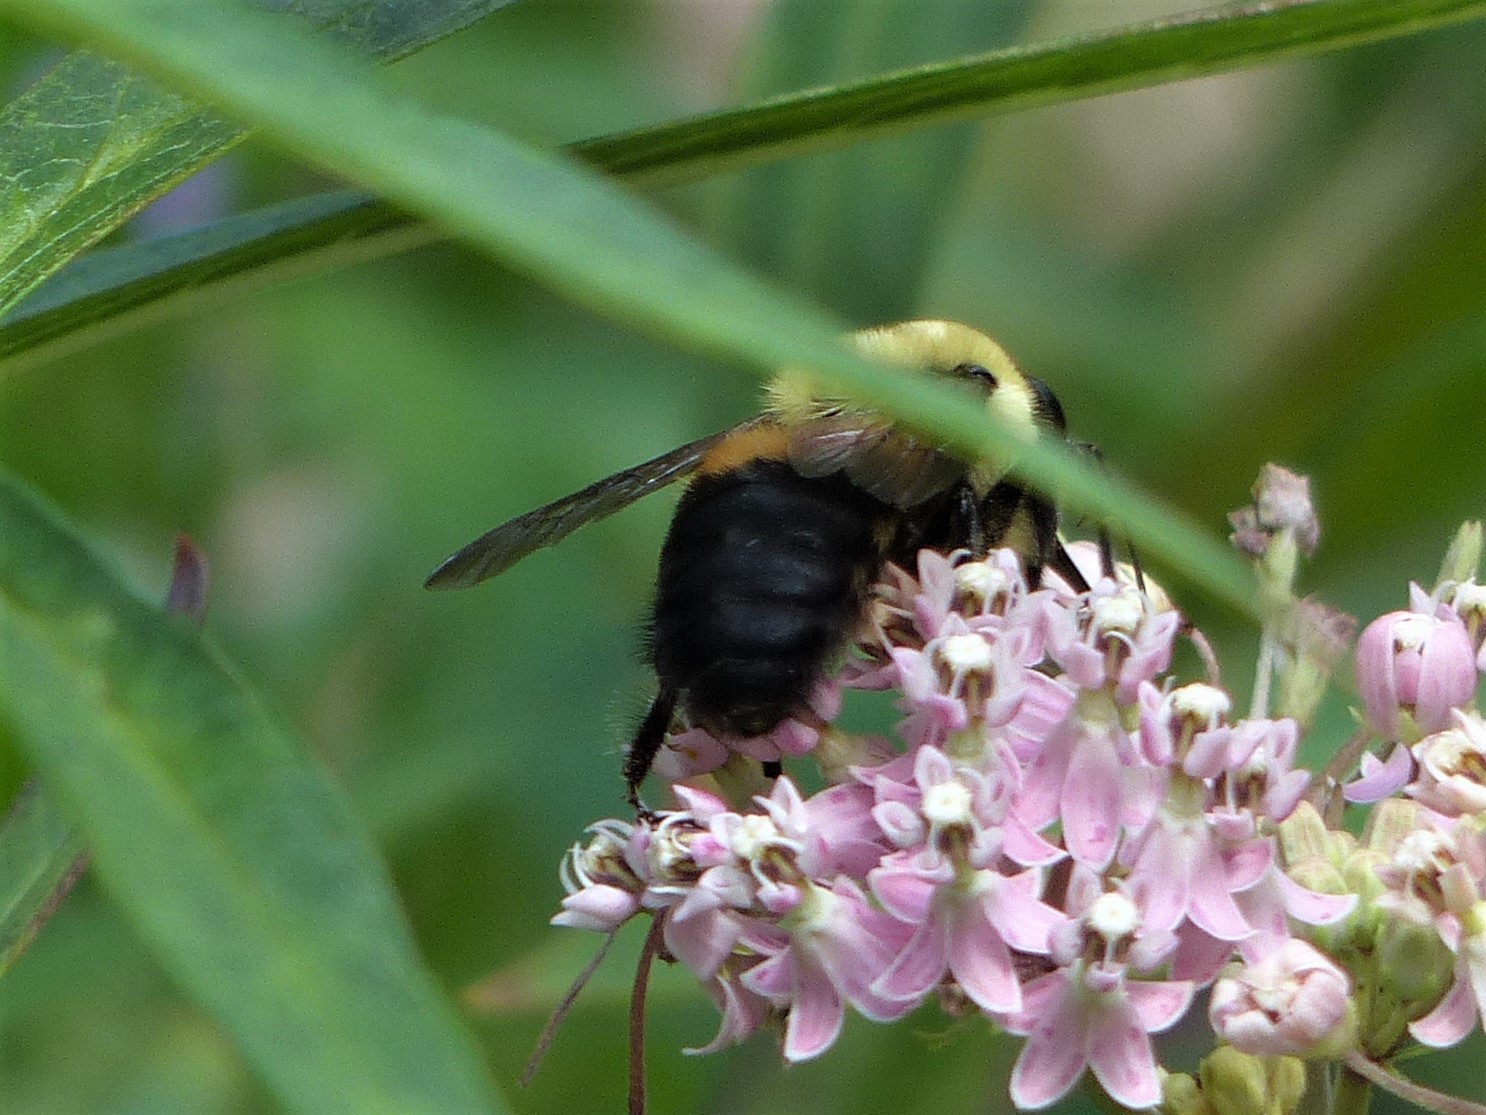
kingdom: Animalia
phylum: Arthropoda
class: Insecta
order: Hymenoptera
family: Apidae
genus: Bombus
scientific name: Bombus griseocollis
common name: Brown-belted bumble bee
